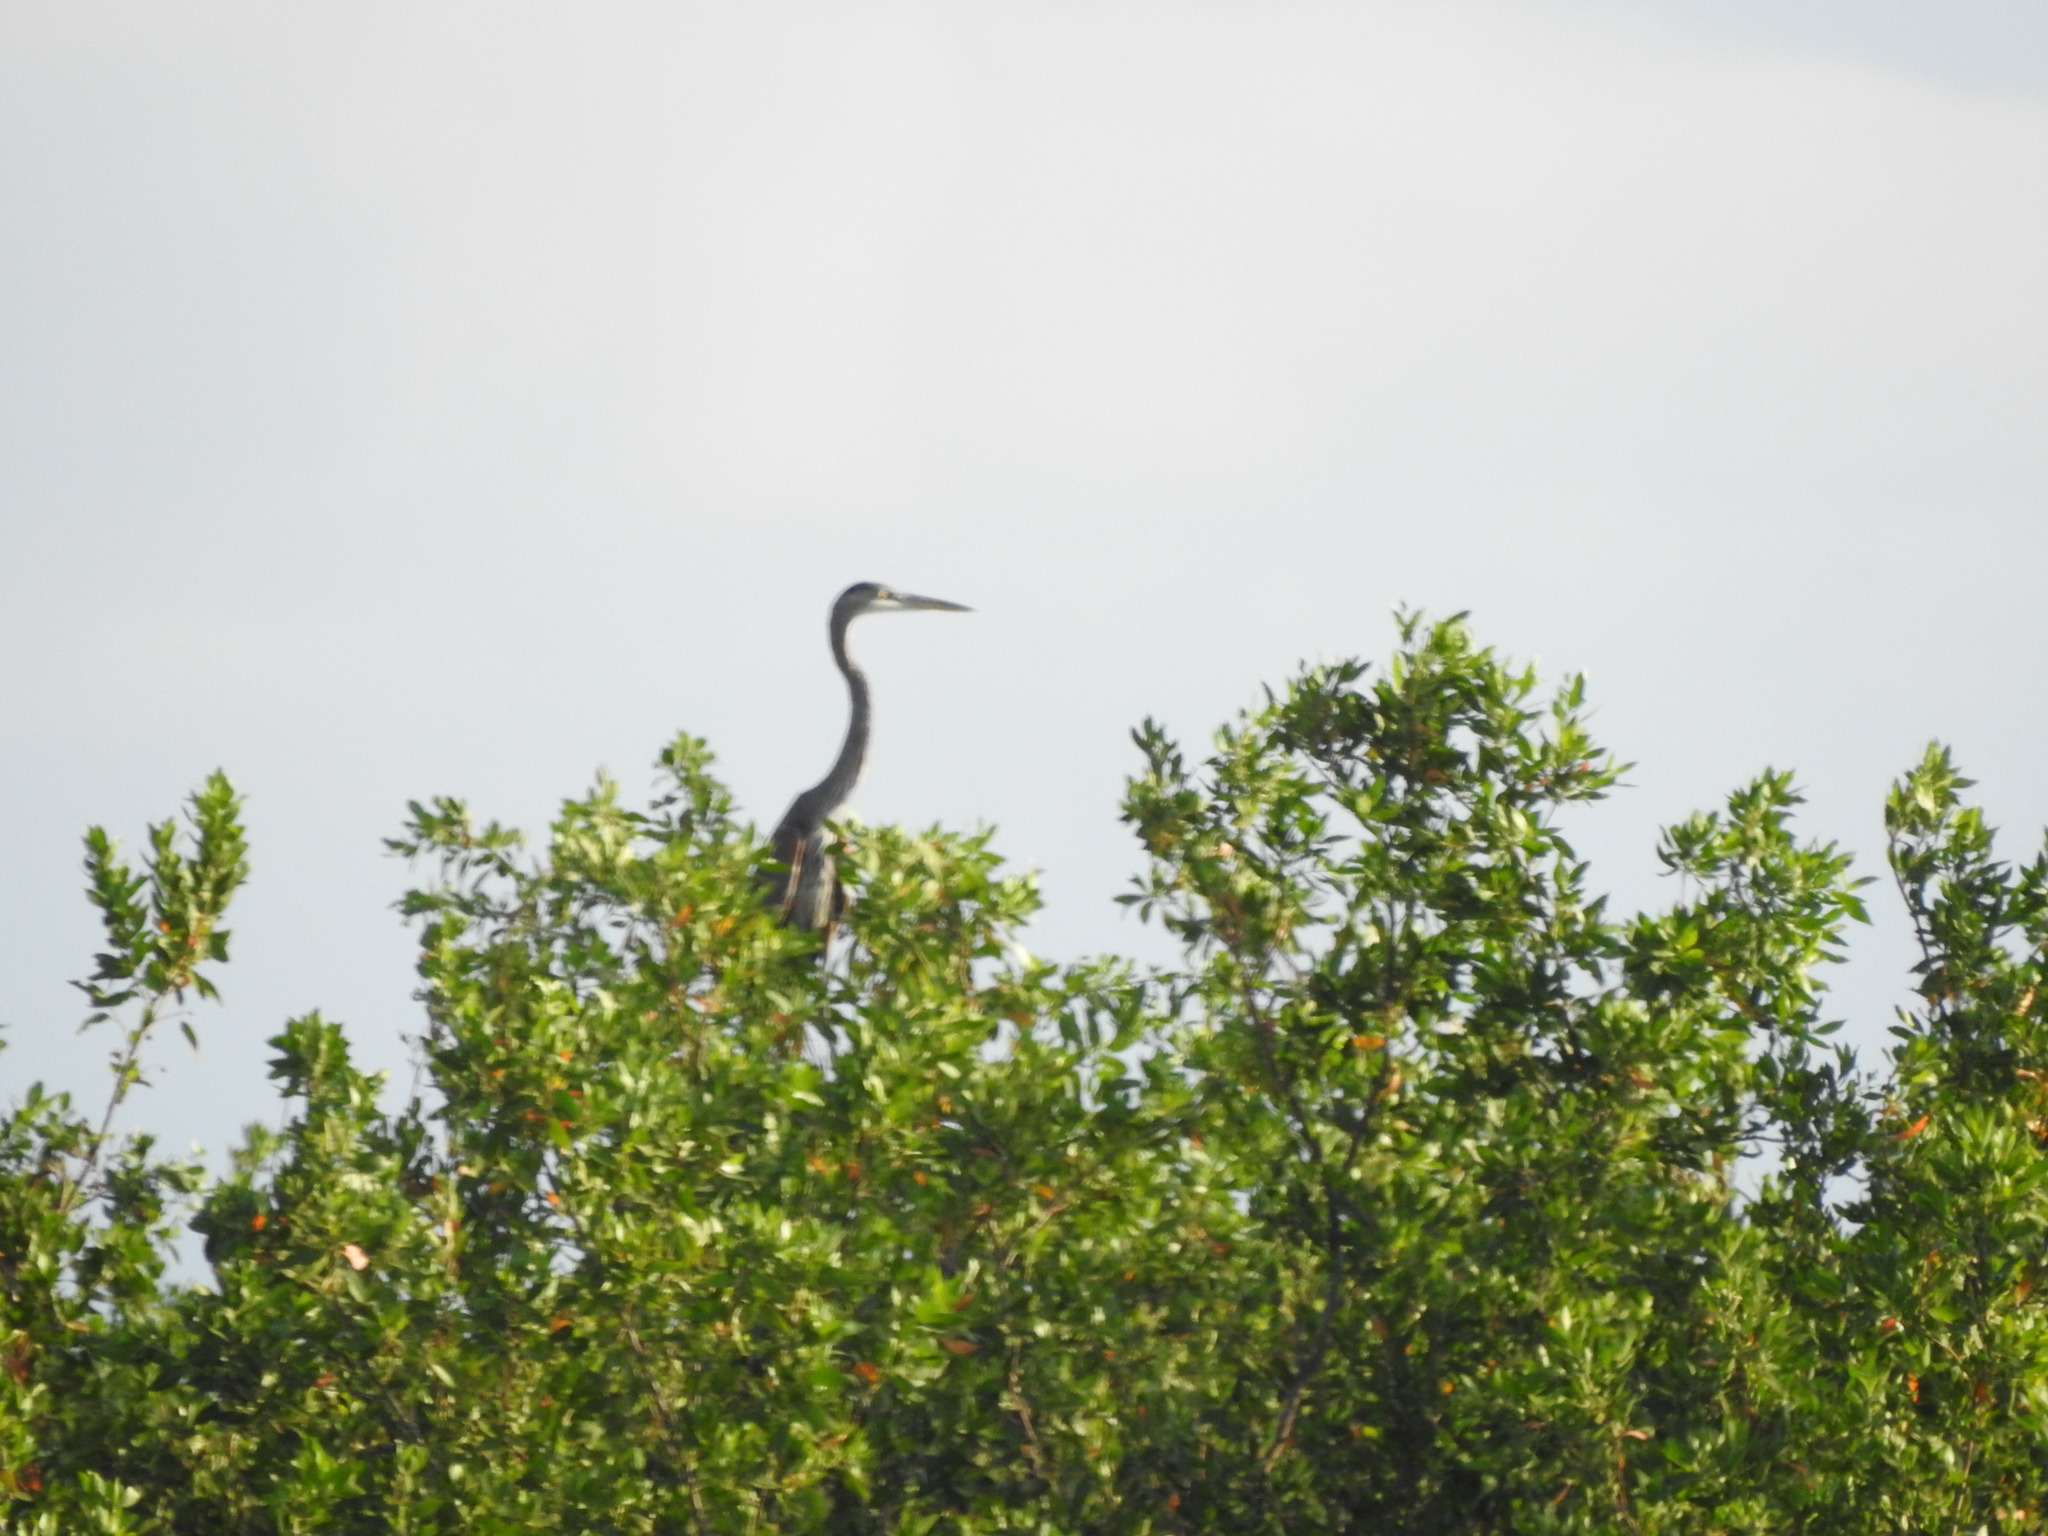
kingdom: Animalia
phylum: Chordata
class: Aves
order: Pelecaniformes
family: Ardeidae
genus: Ardea
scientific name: Ardea herodias
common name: Great blue heron
